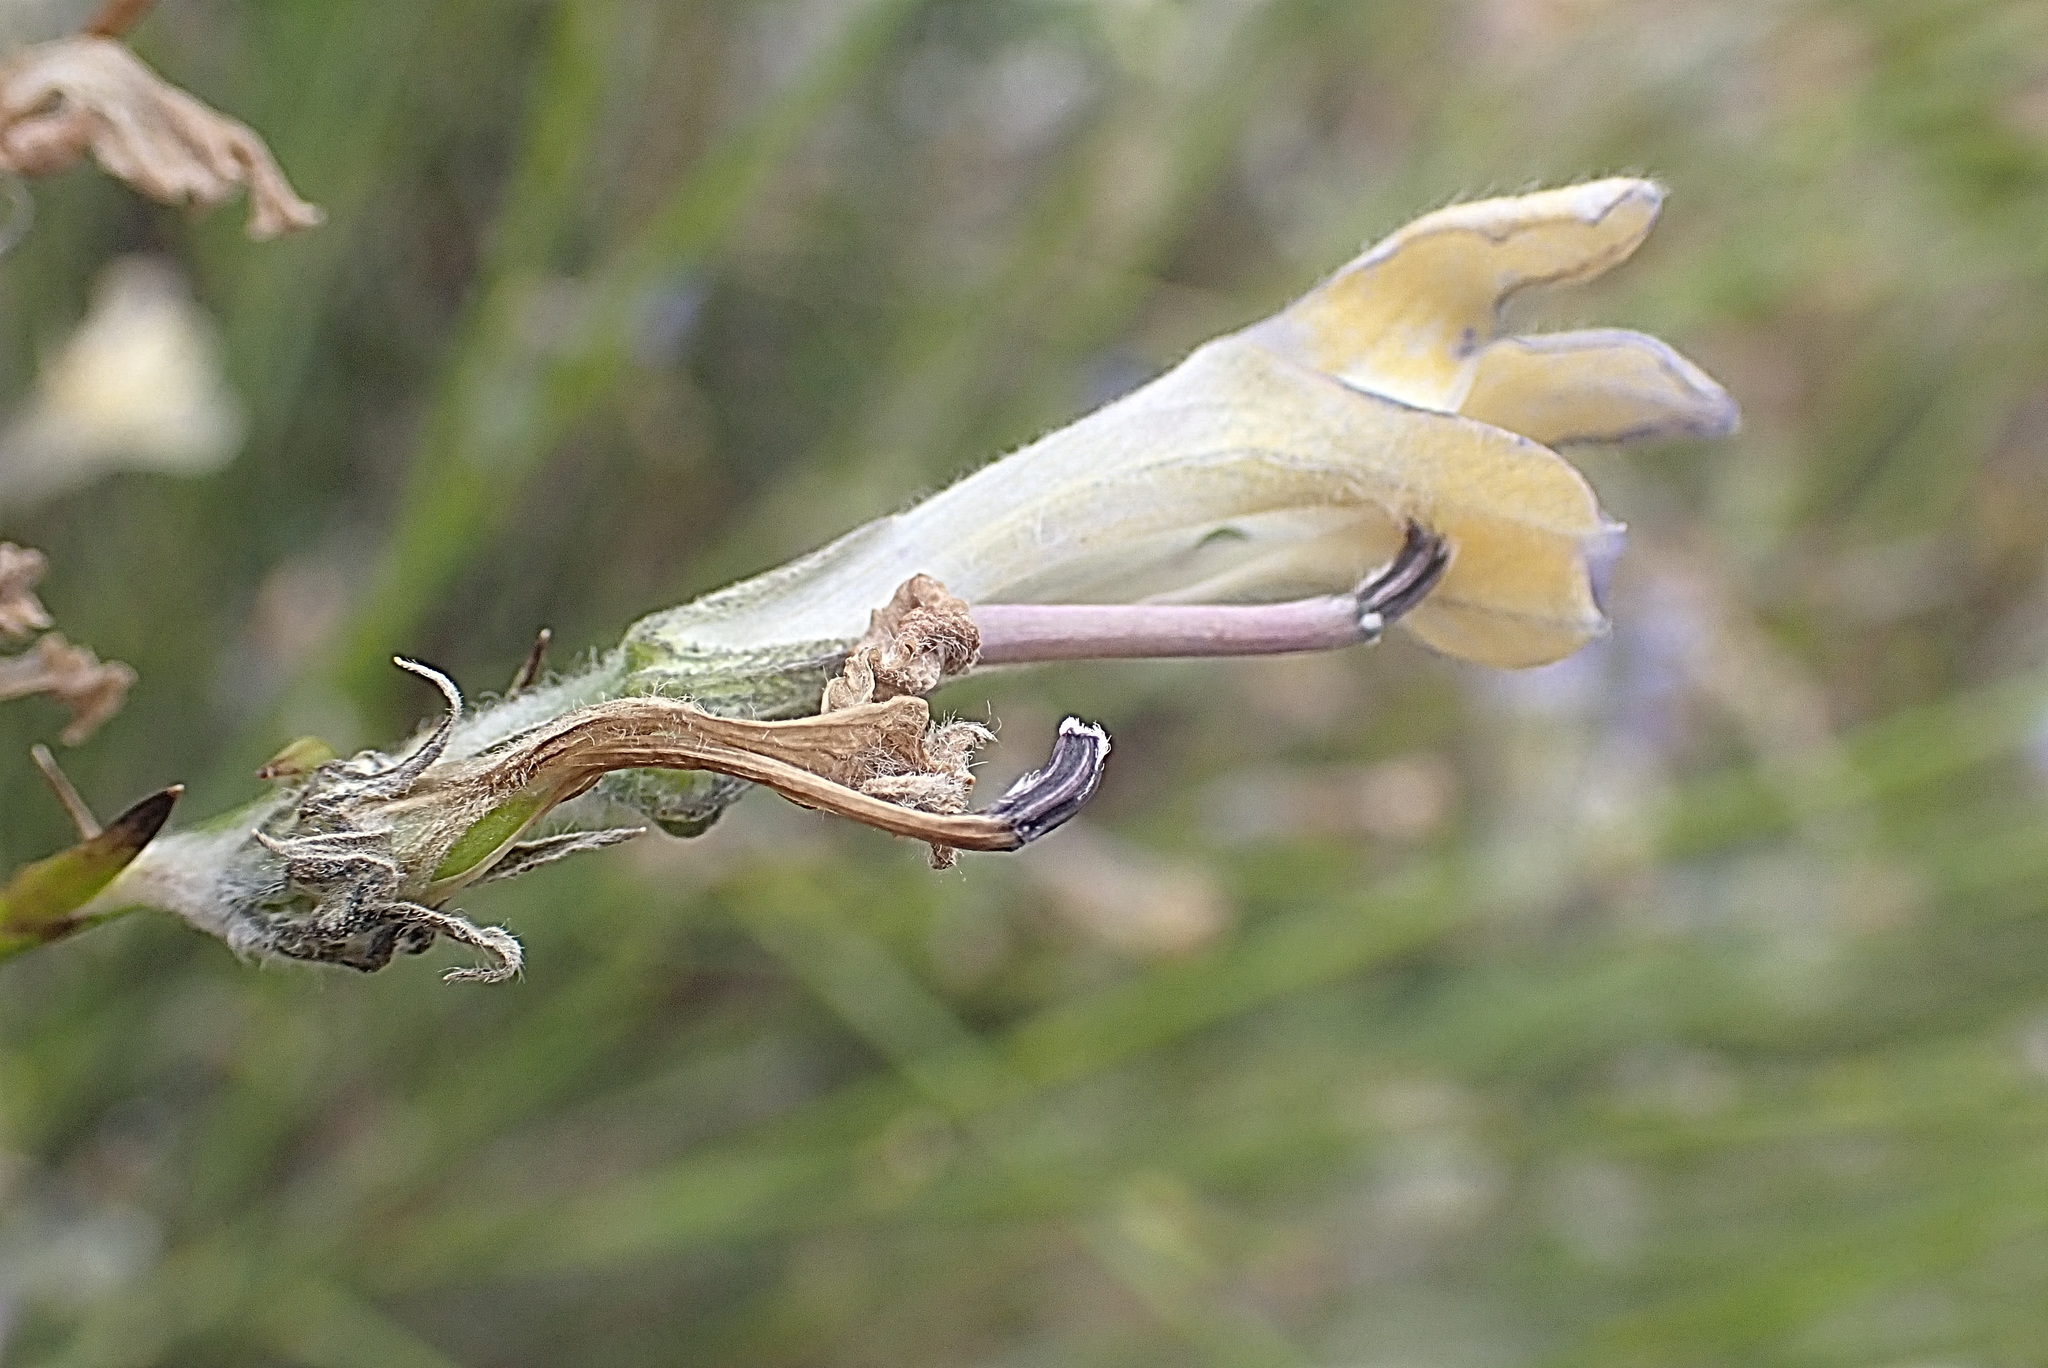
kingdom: Plantae
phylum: Tracheophyta
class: Magnoliopsida
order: Asterales
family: Campanulaceae
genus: Lobelia
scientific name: Lobelia linearis
